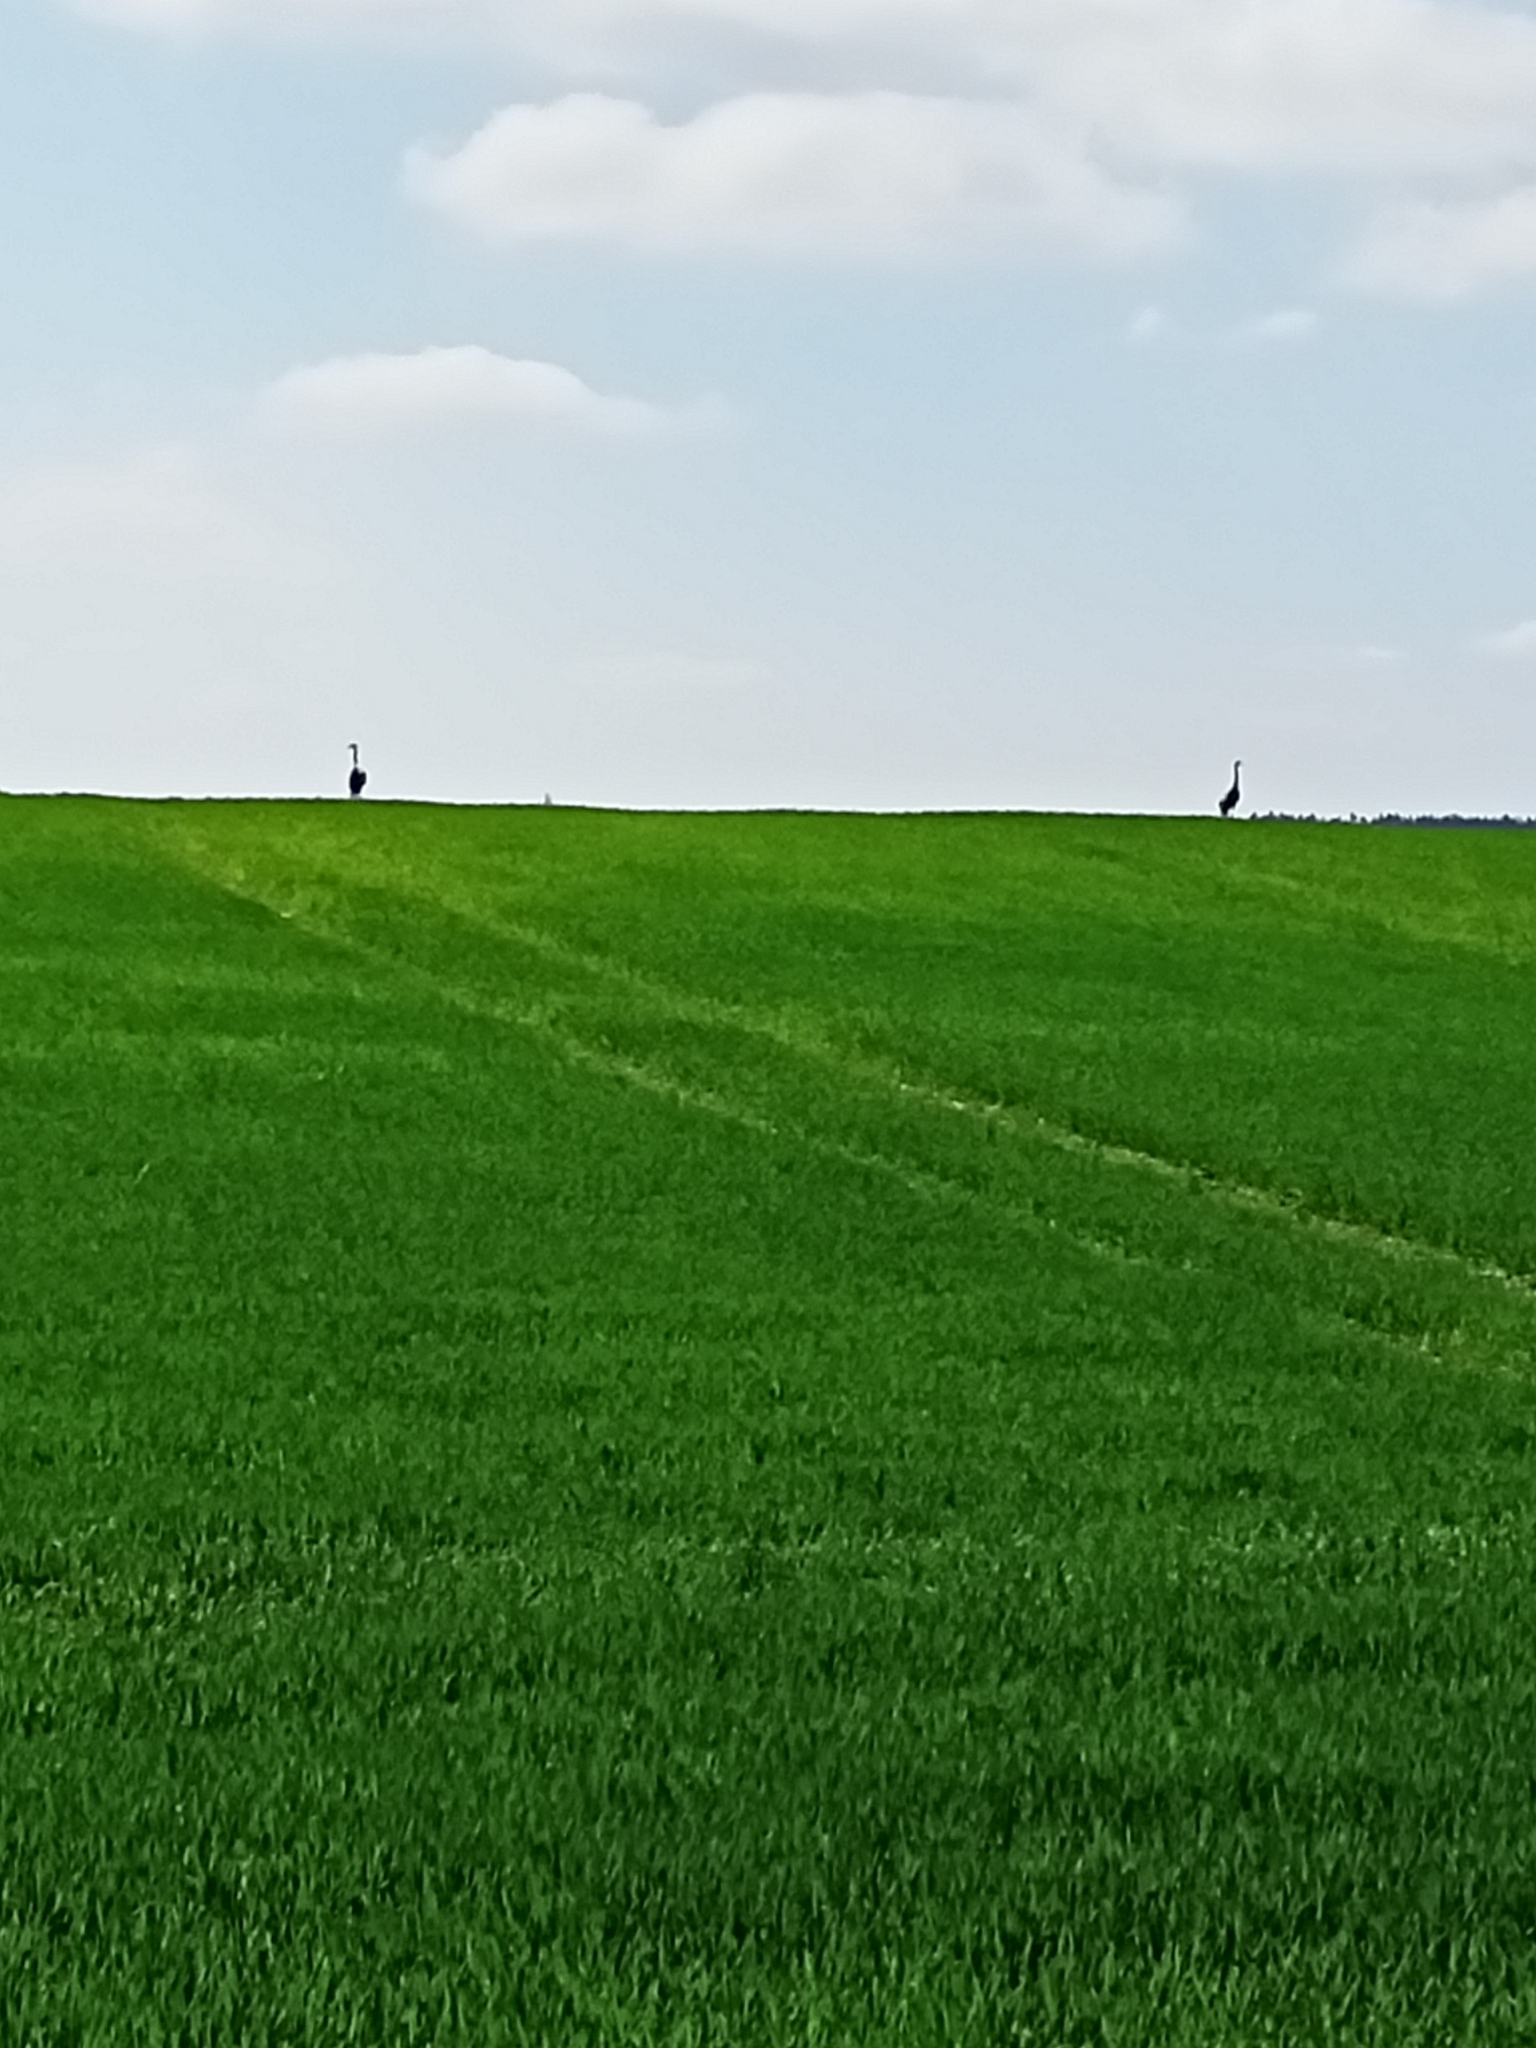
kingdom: Animalia
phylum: Chordata
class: Aves
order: Gruiformes
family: Gruidae
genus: Grus
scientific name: Grus grus
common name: Common crane
